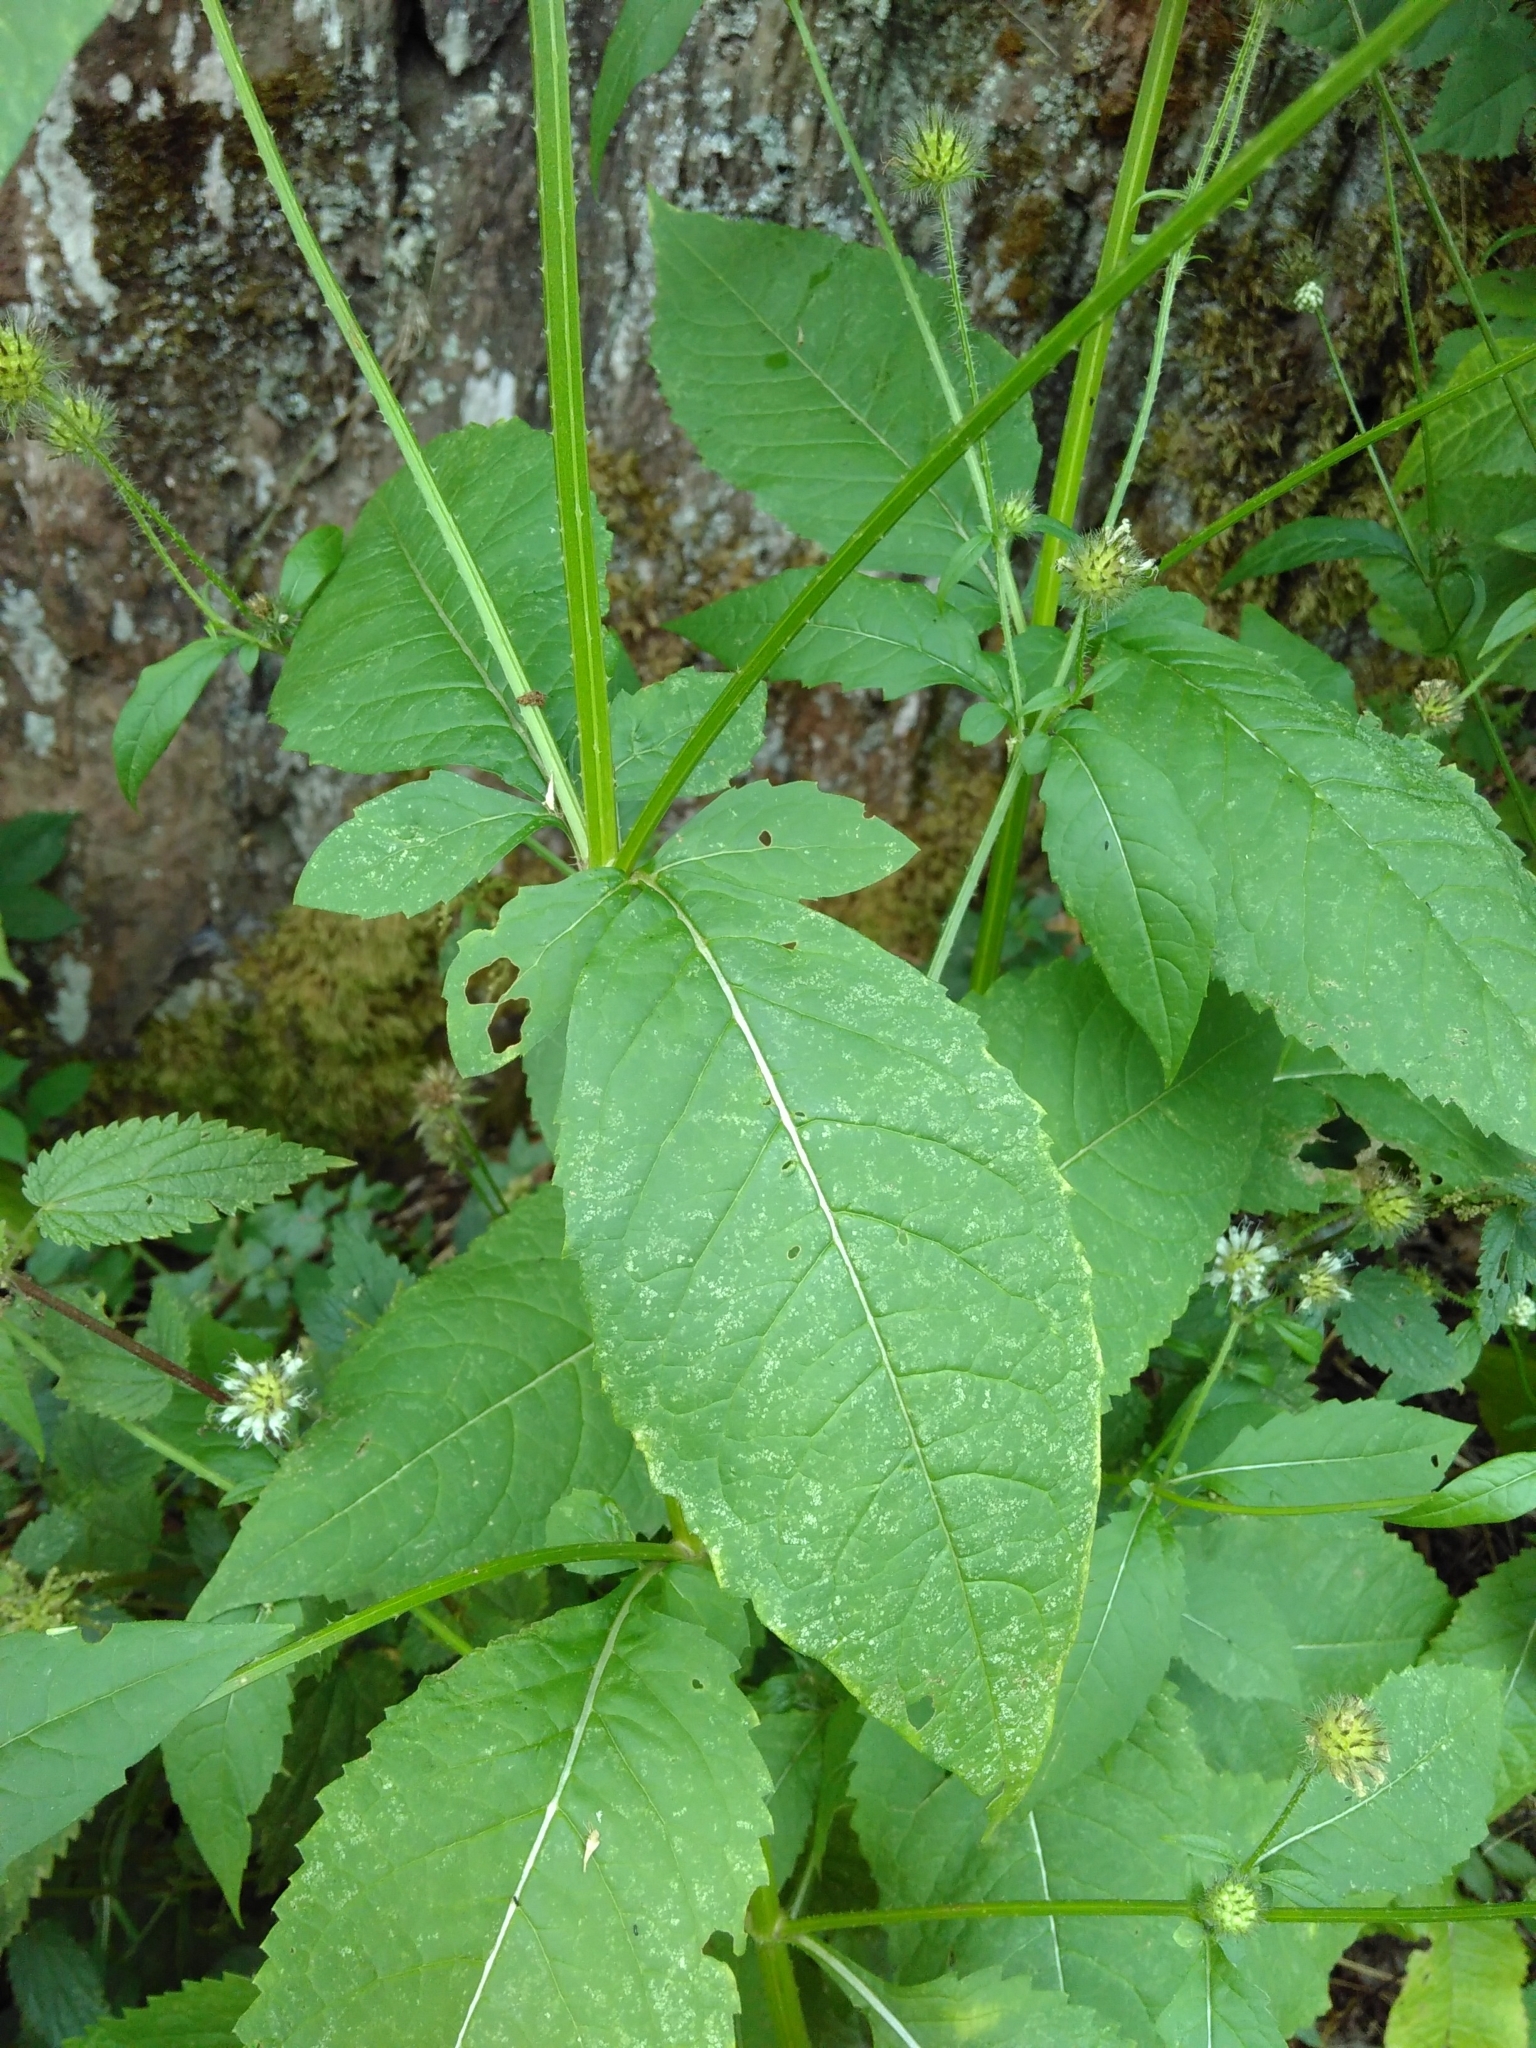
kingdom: Plantae
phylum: Tracheophyta
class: Magnoliopsida
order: Dipsacales
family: Caprifoliaceae
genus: Dipsacus
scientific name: Dipsacus pilosus
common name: Small teasel
